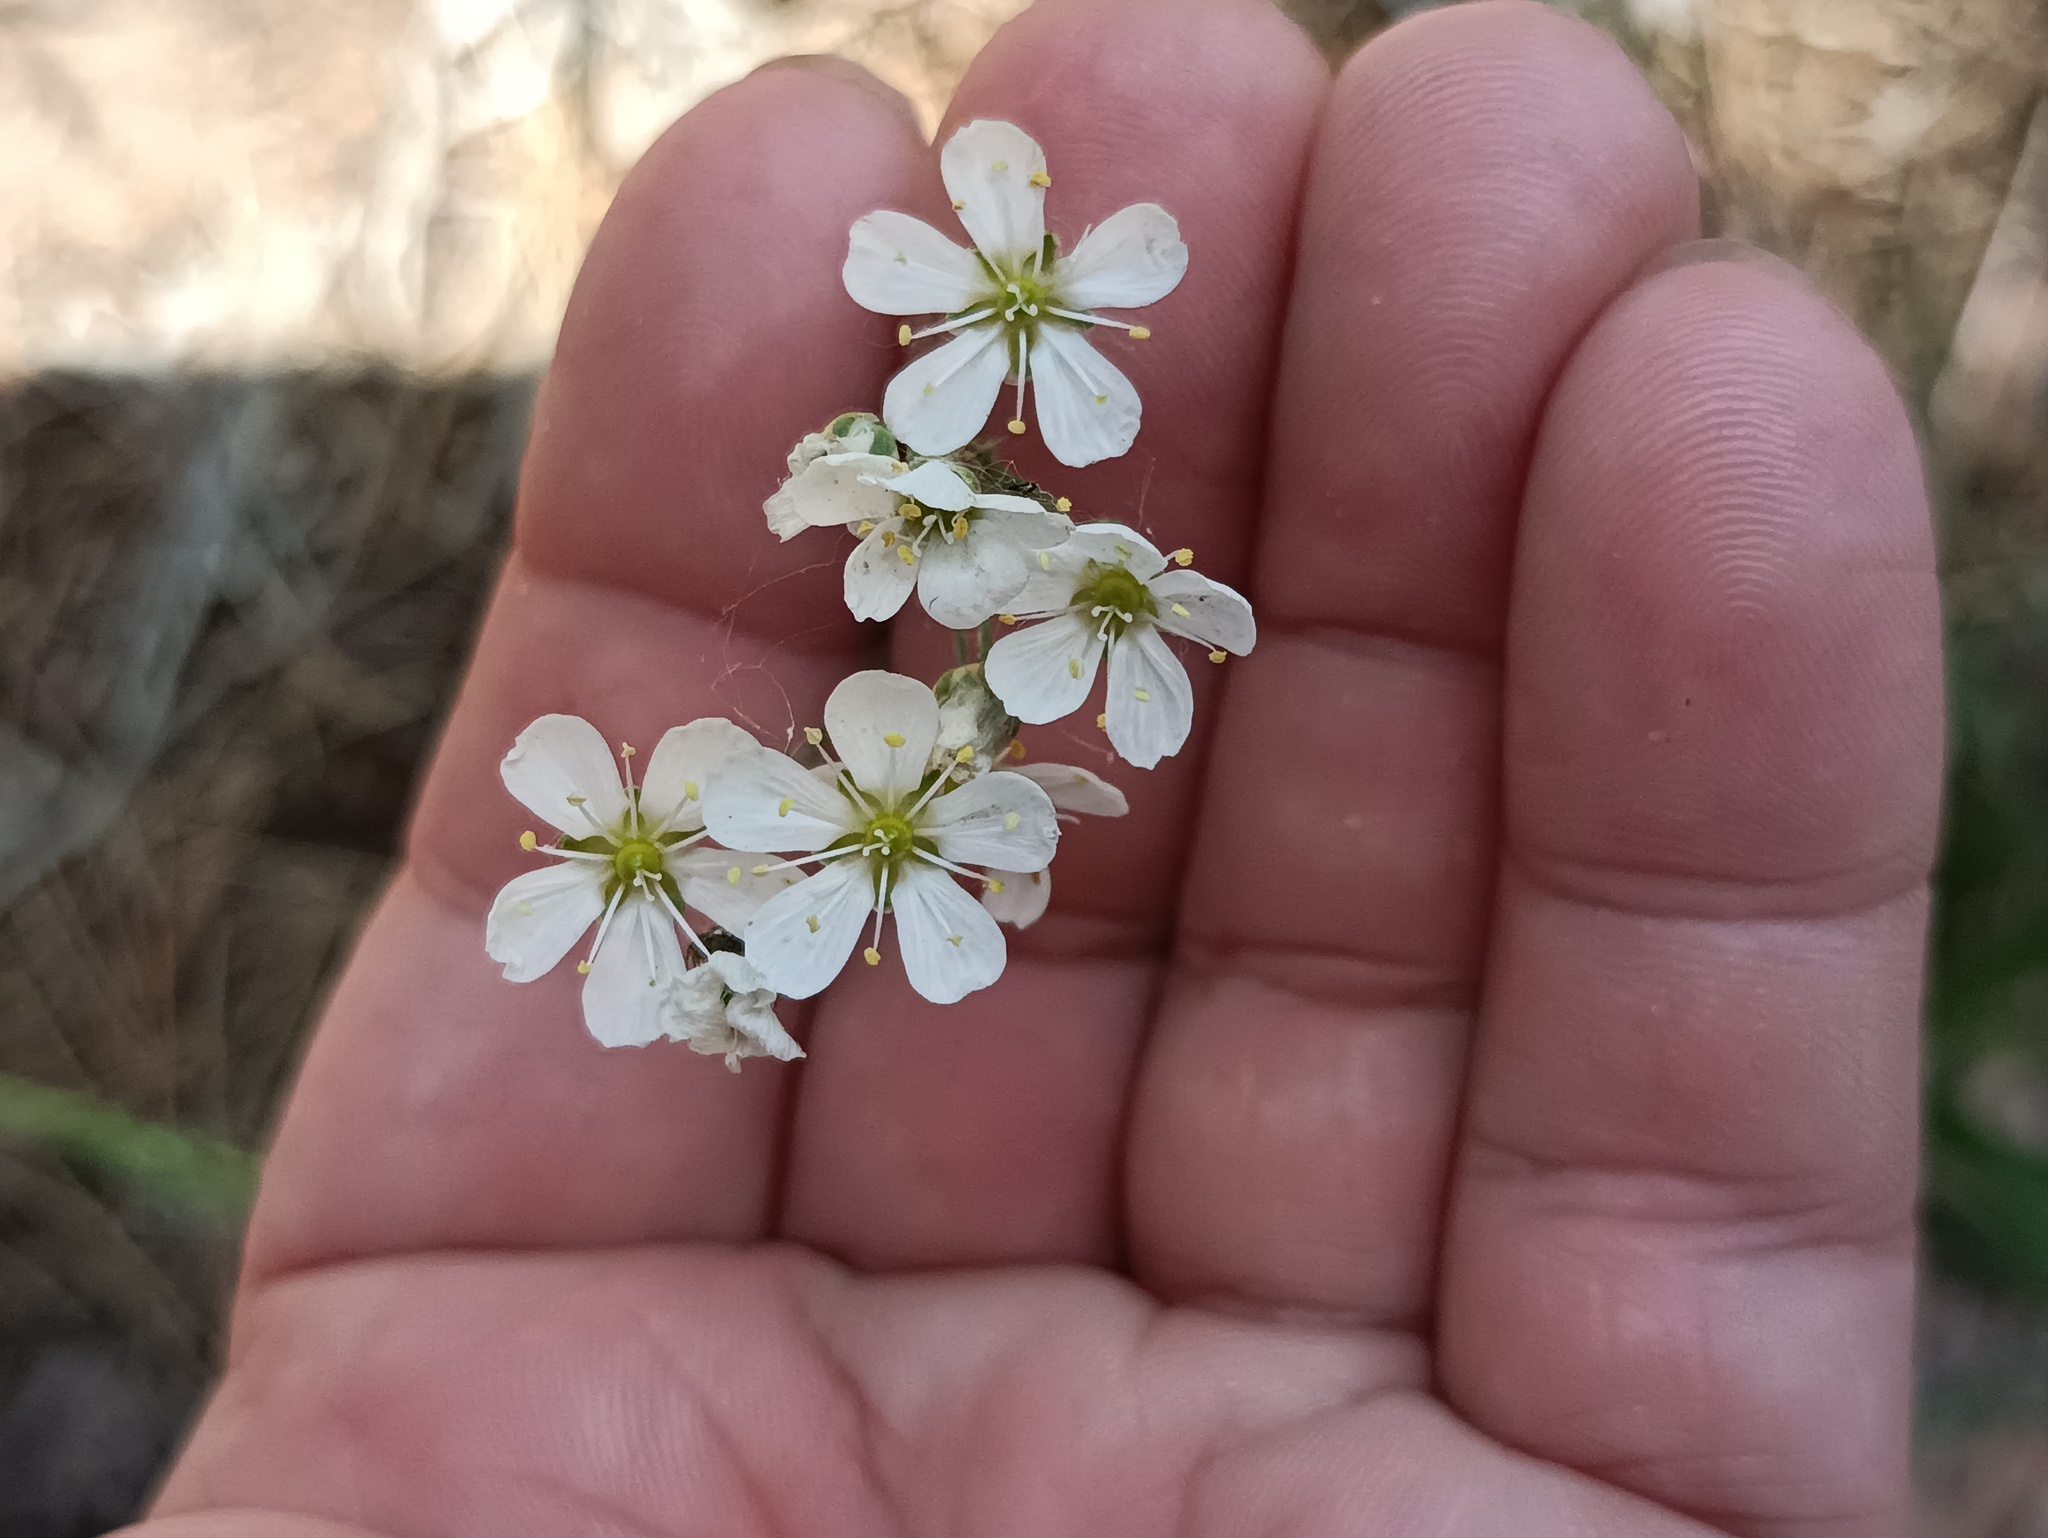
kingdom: Plantae
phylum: Tracheophyta
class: Magnoliopsida
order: Caryophyllales
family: Caryophyllaceae
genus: Eremogone
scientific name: Eremogone saxatilis
